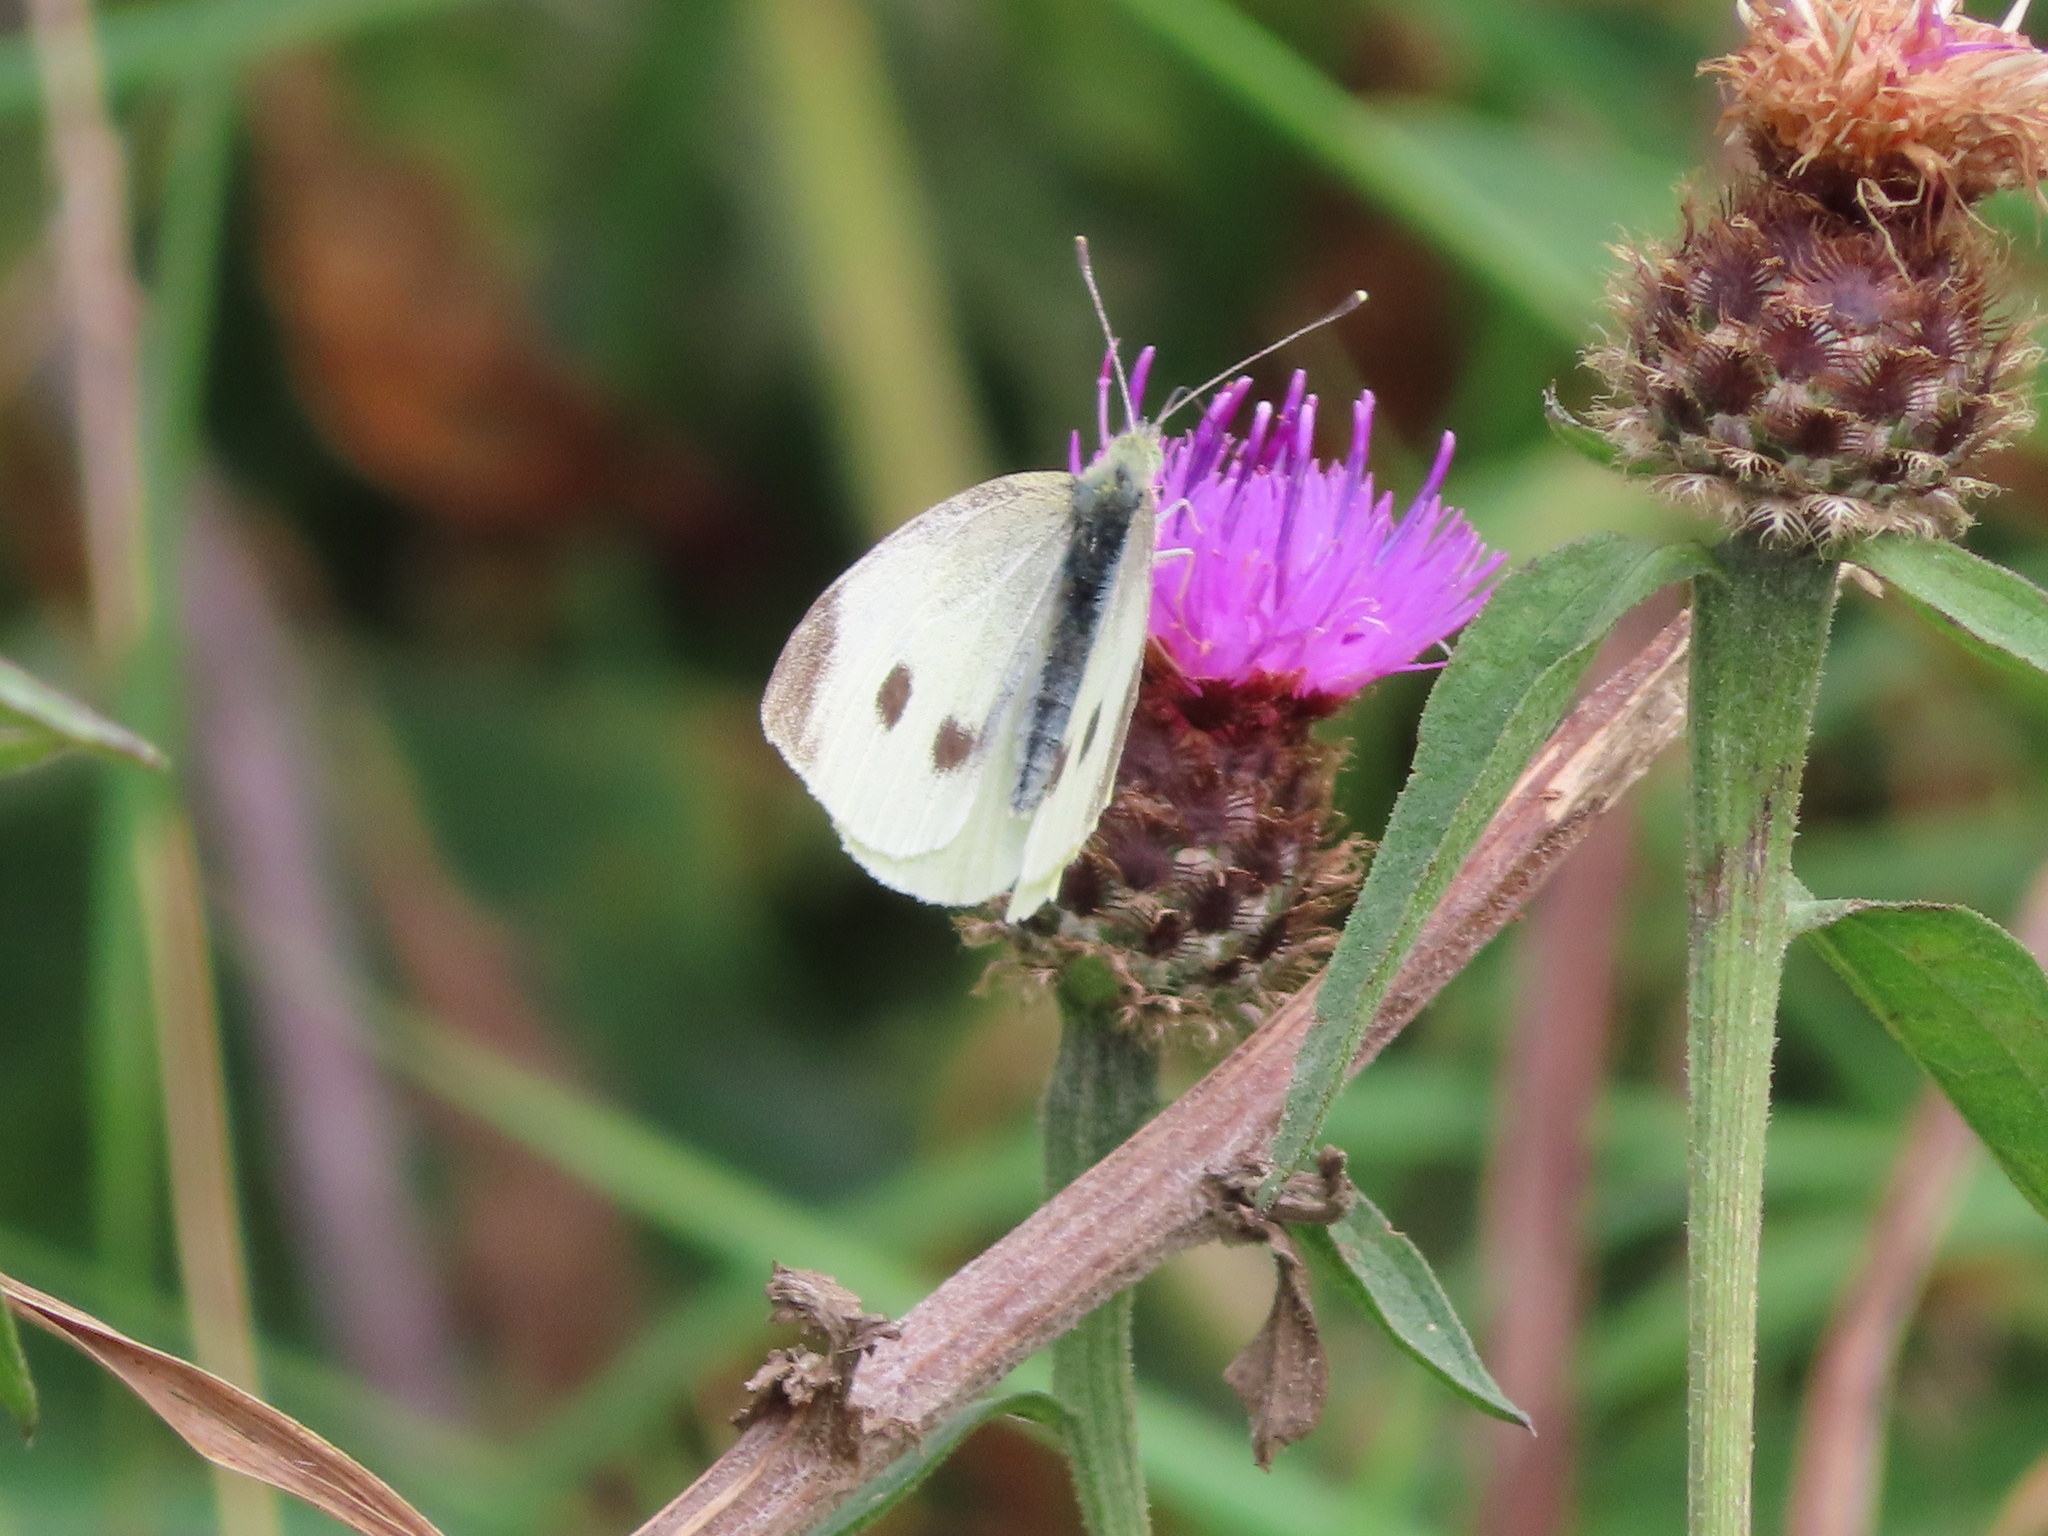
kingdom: Animalia
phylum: Arthropoda
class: Insecta
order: Lepidoptera
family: Pieridae
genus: Pieris
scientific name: Pieris rapae
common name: Small white
